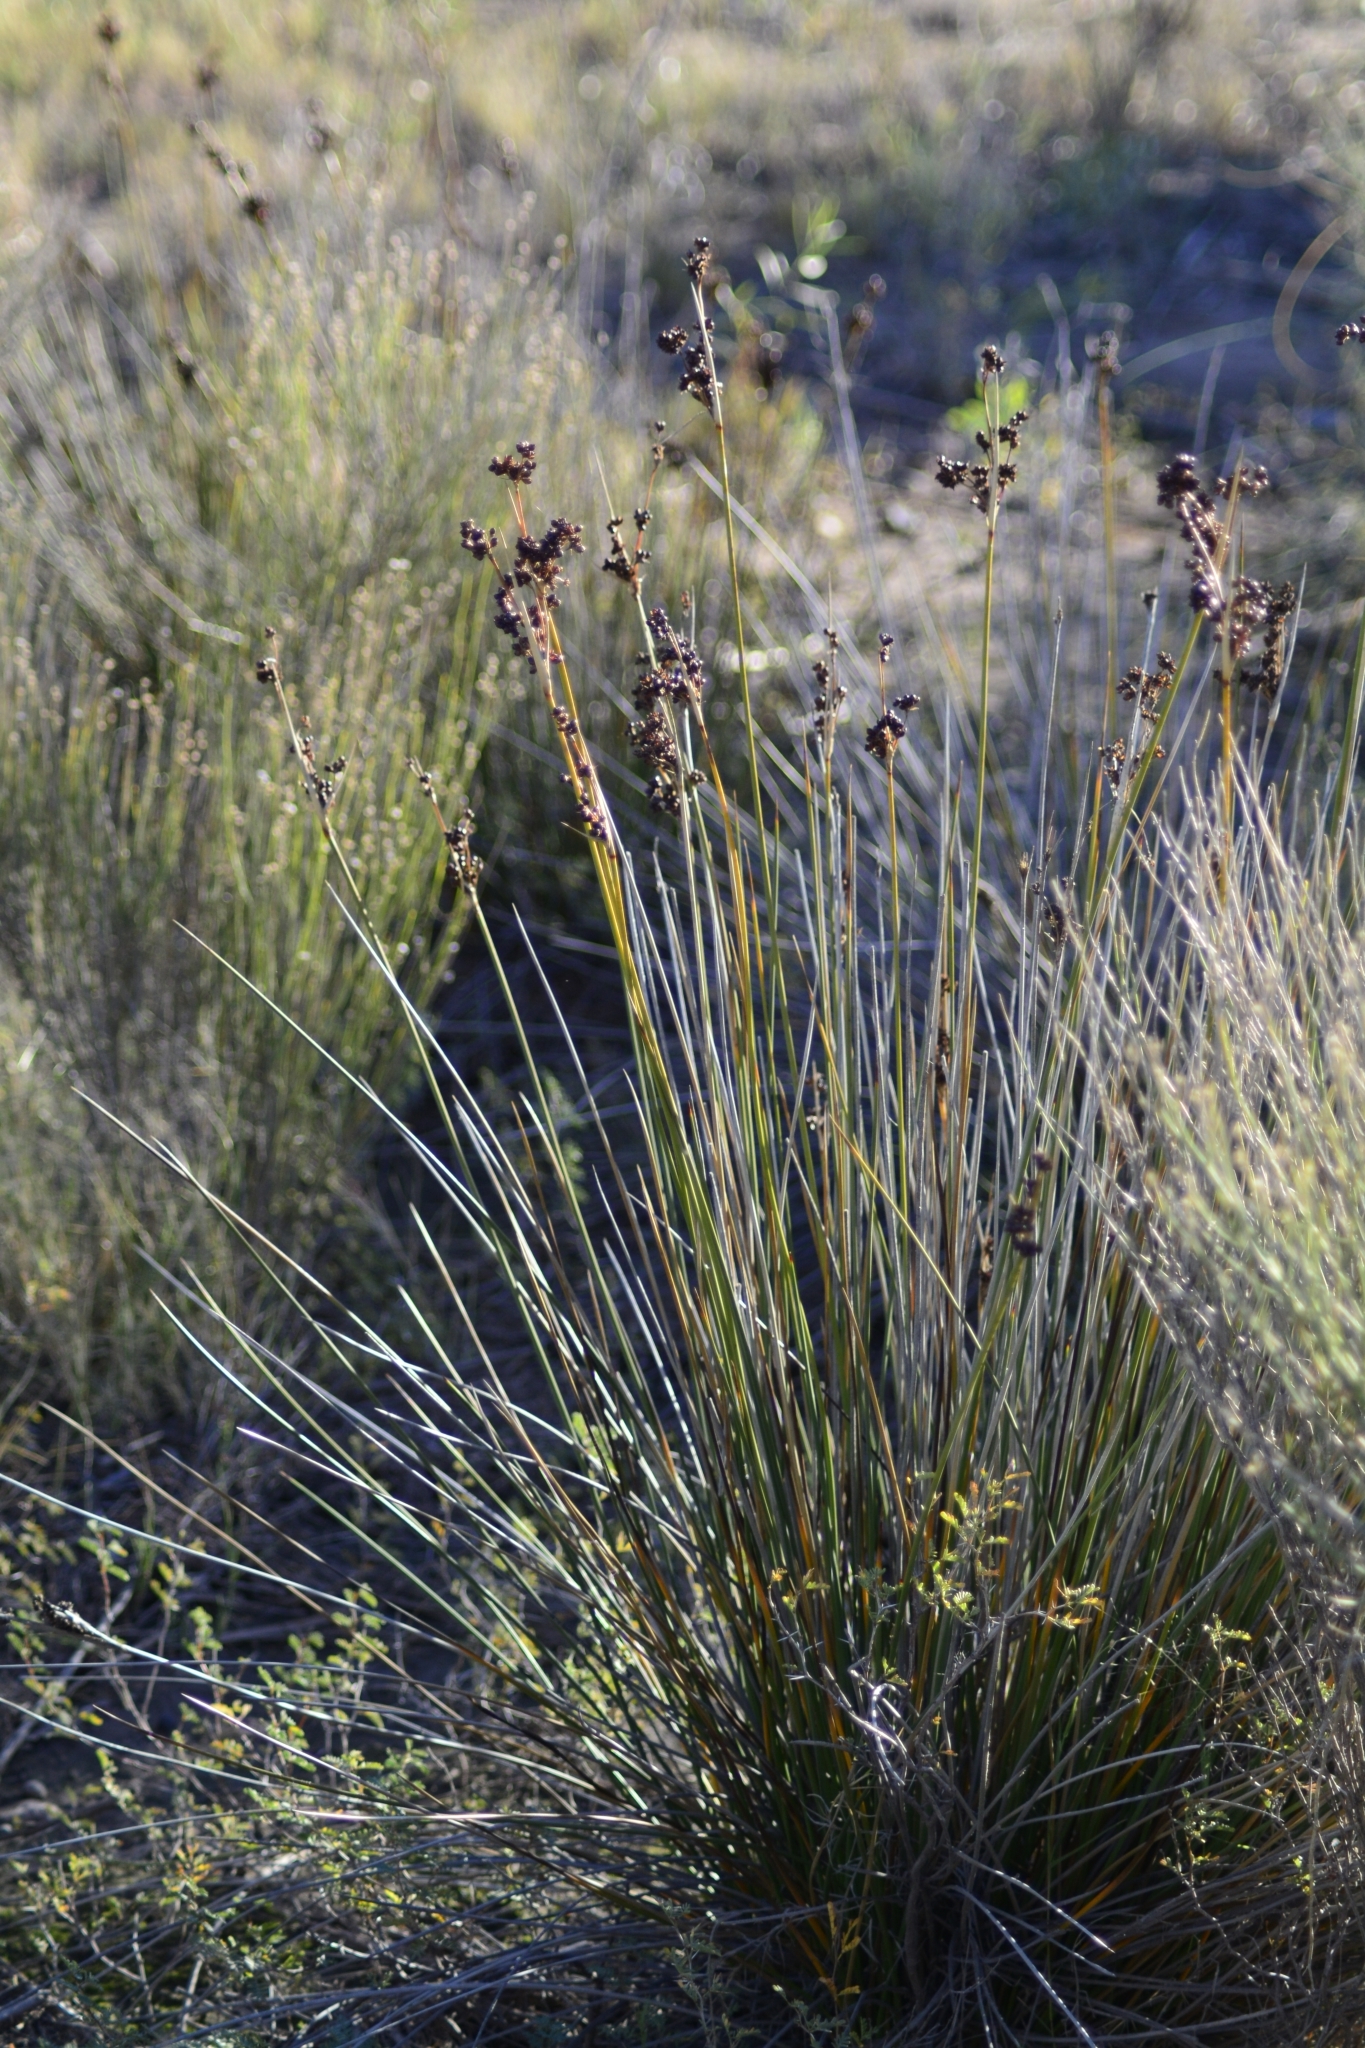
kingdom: Plantae
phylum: Tracheophyta
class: Liliopsida
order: Poales
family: Juncaceae
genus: Juncus
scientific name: Juncus acutus
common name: Sharp rush
